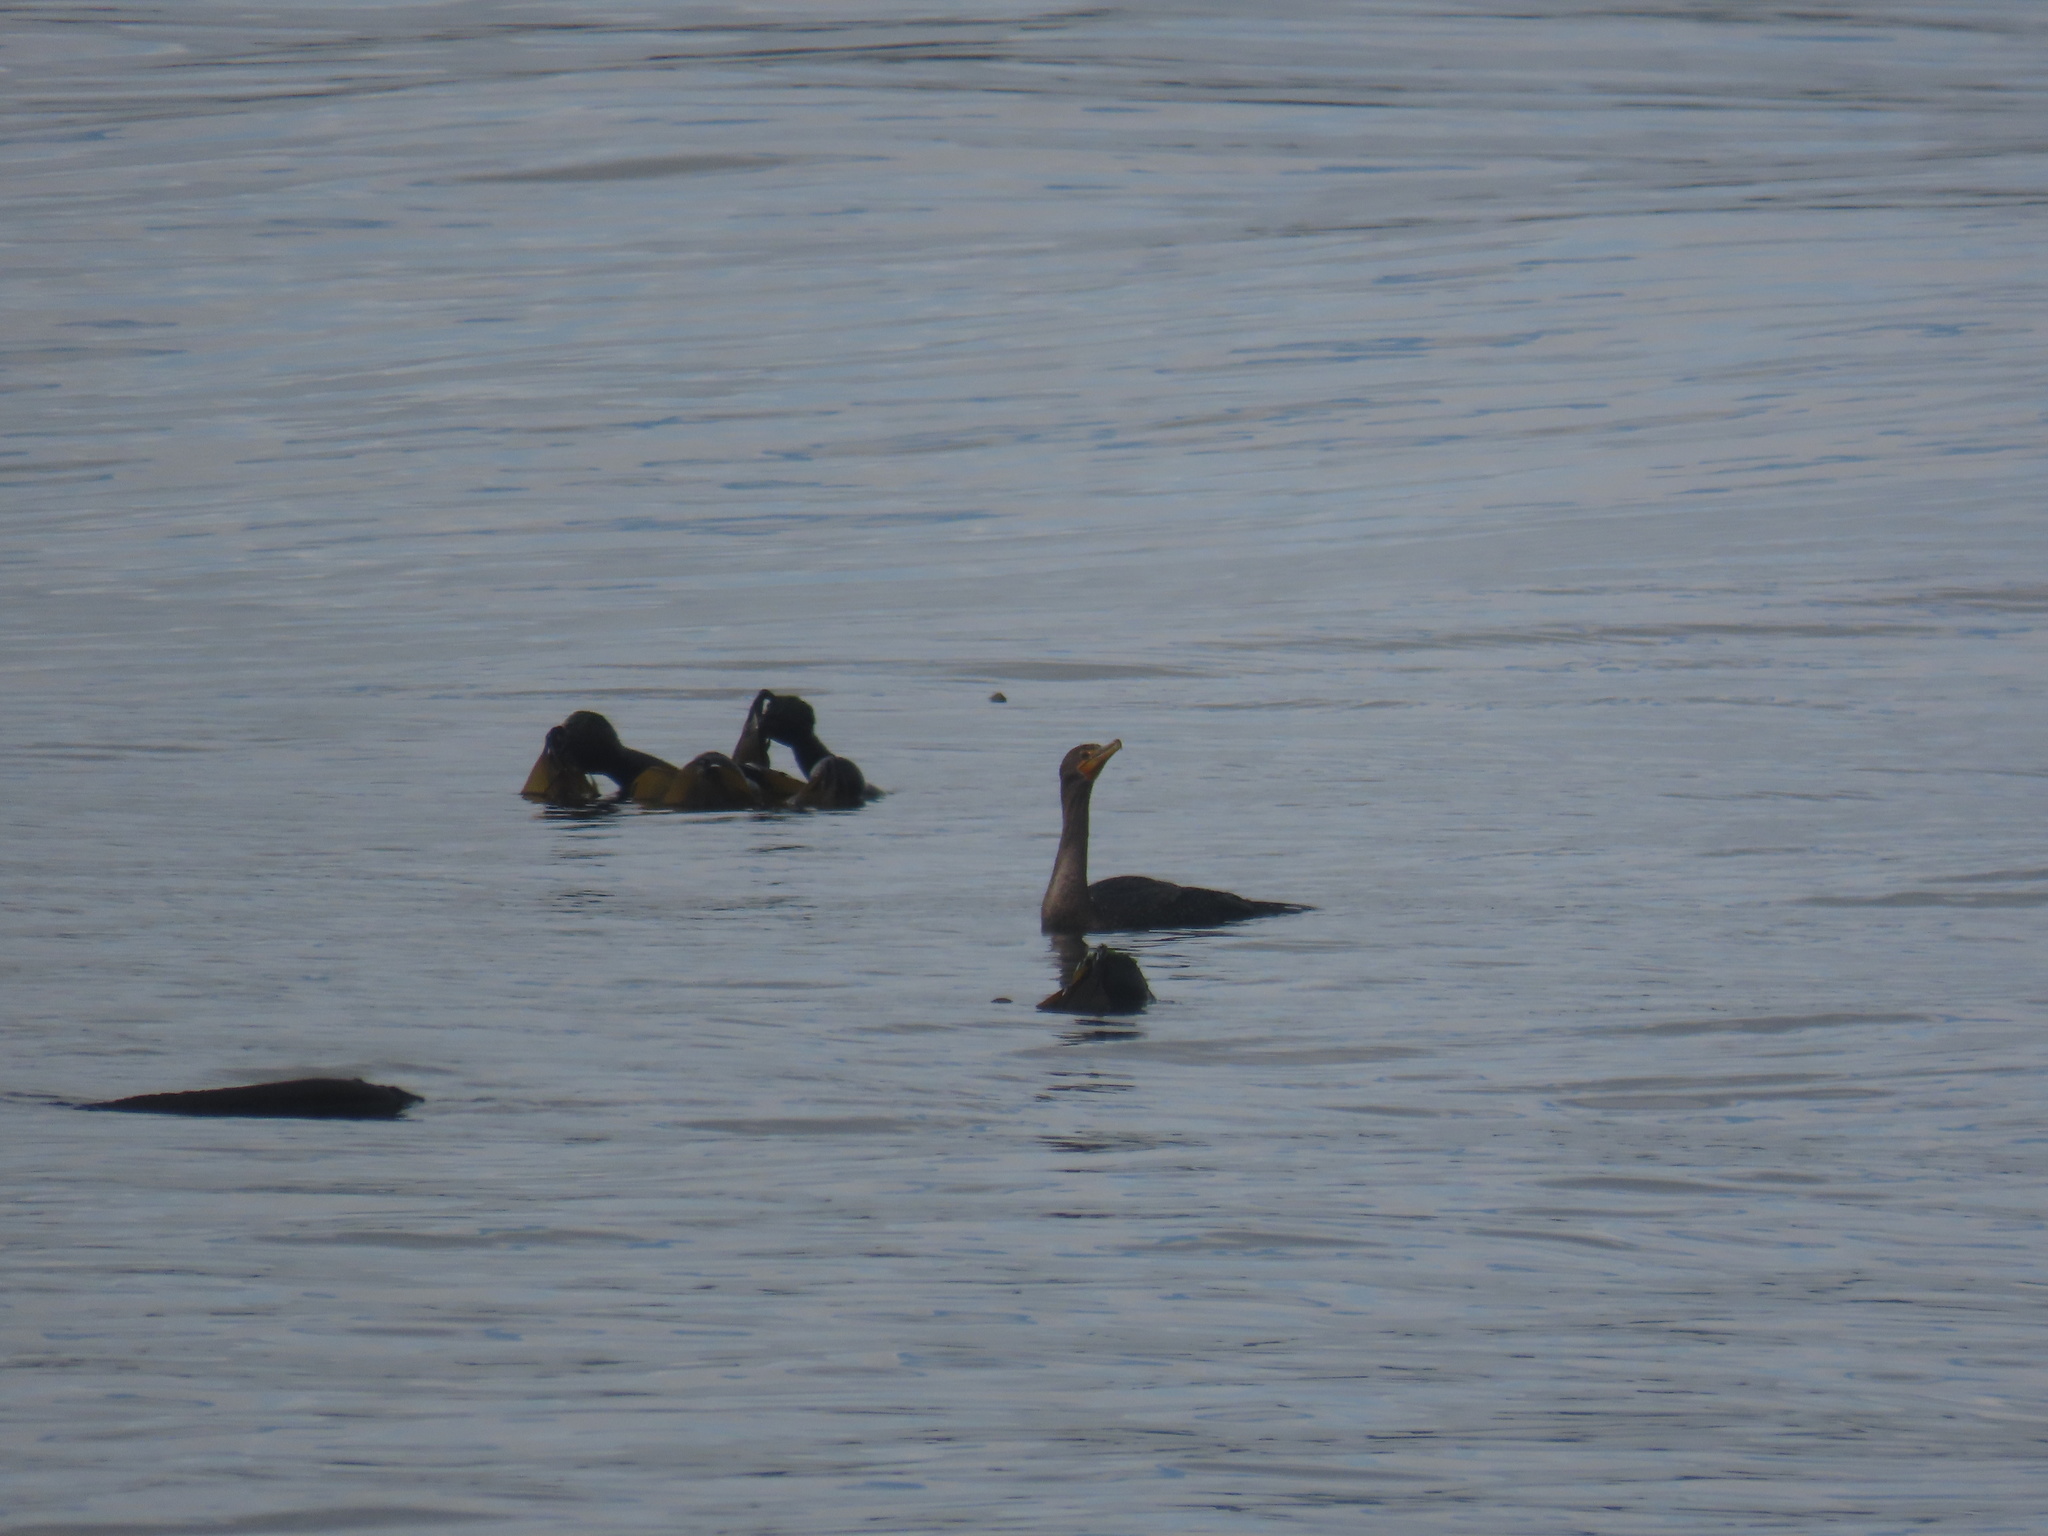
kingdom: Animalia
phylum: Chordata
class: Aves
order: Suliformes
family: Phalacrocoracidae
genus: Phalacrocorax
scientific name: Phalacrocorax auritus
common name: Double-crested cormorant
